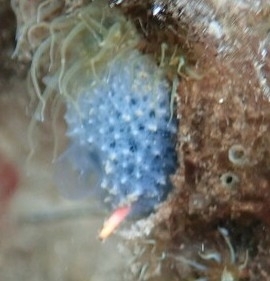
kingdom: Animalia
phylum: Porifera
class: Demospongiae
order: Dictyoceratida
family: Dysideidae
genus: Dysidea
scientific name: Dysidea etheria
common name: Heavenly sponge
